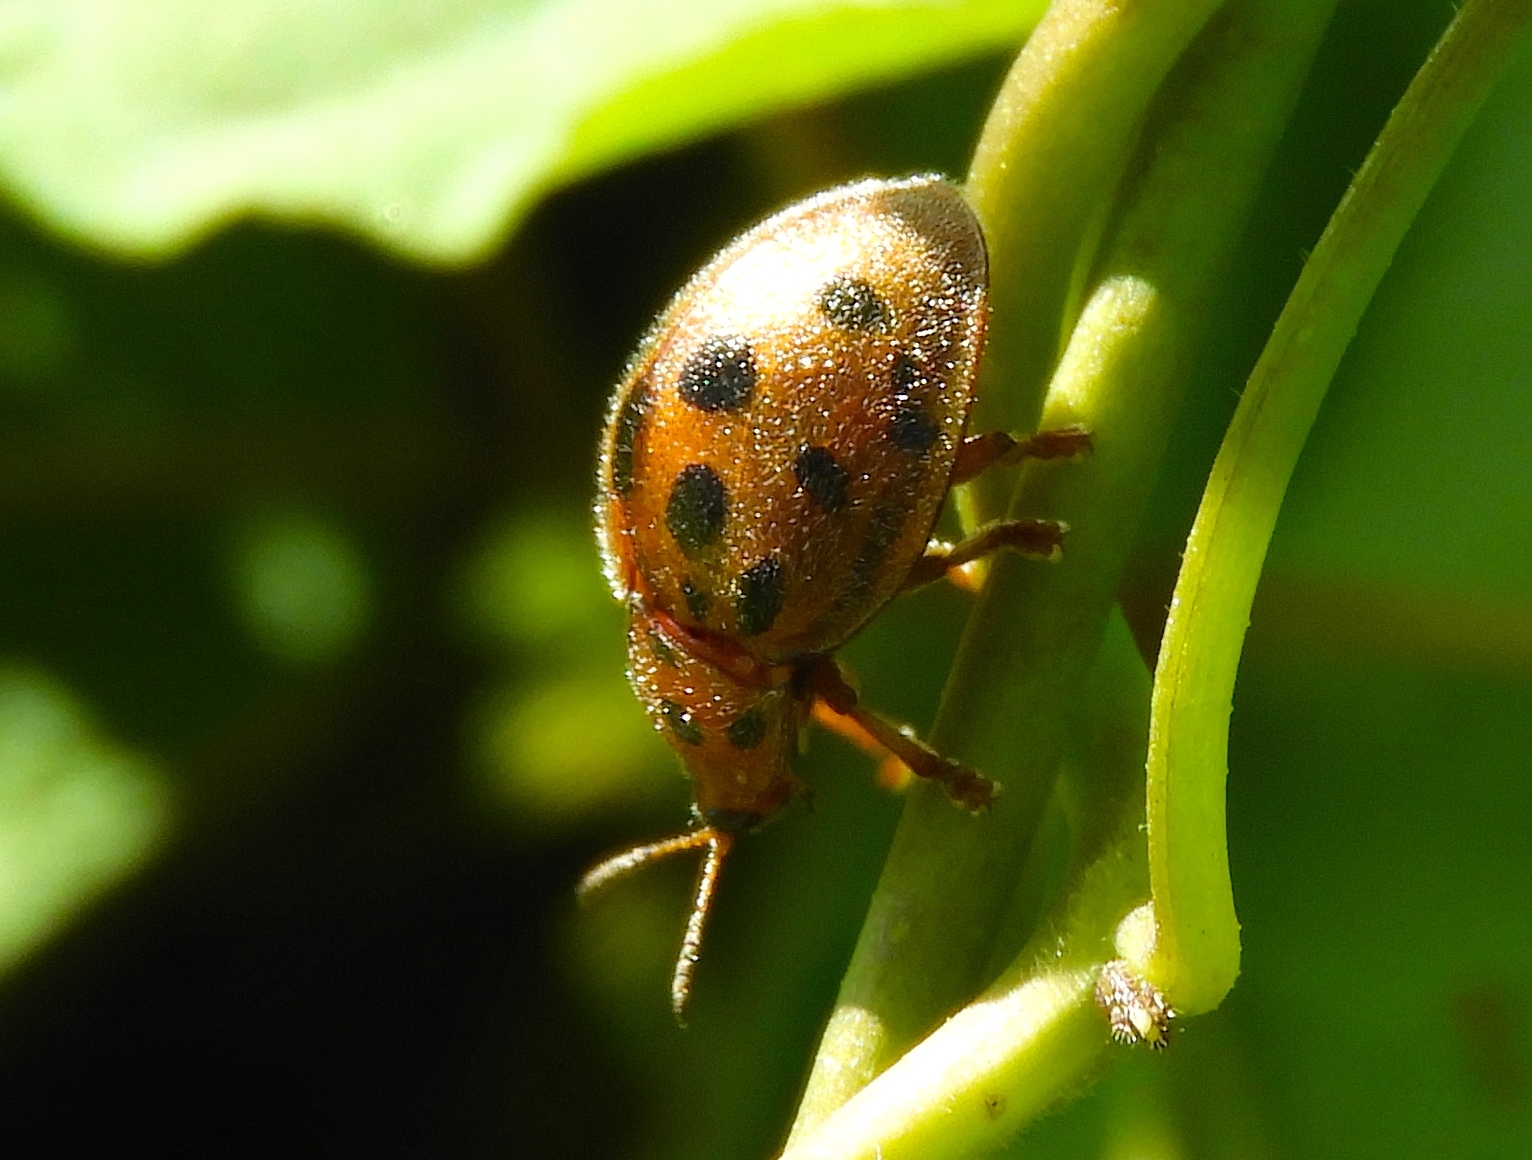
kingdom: Animalia
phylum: Arthropoda
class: Insecta
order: Coleoptera
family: Chrysomelidae
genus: Chelymorpha
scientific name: Chelymorpha
